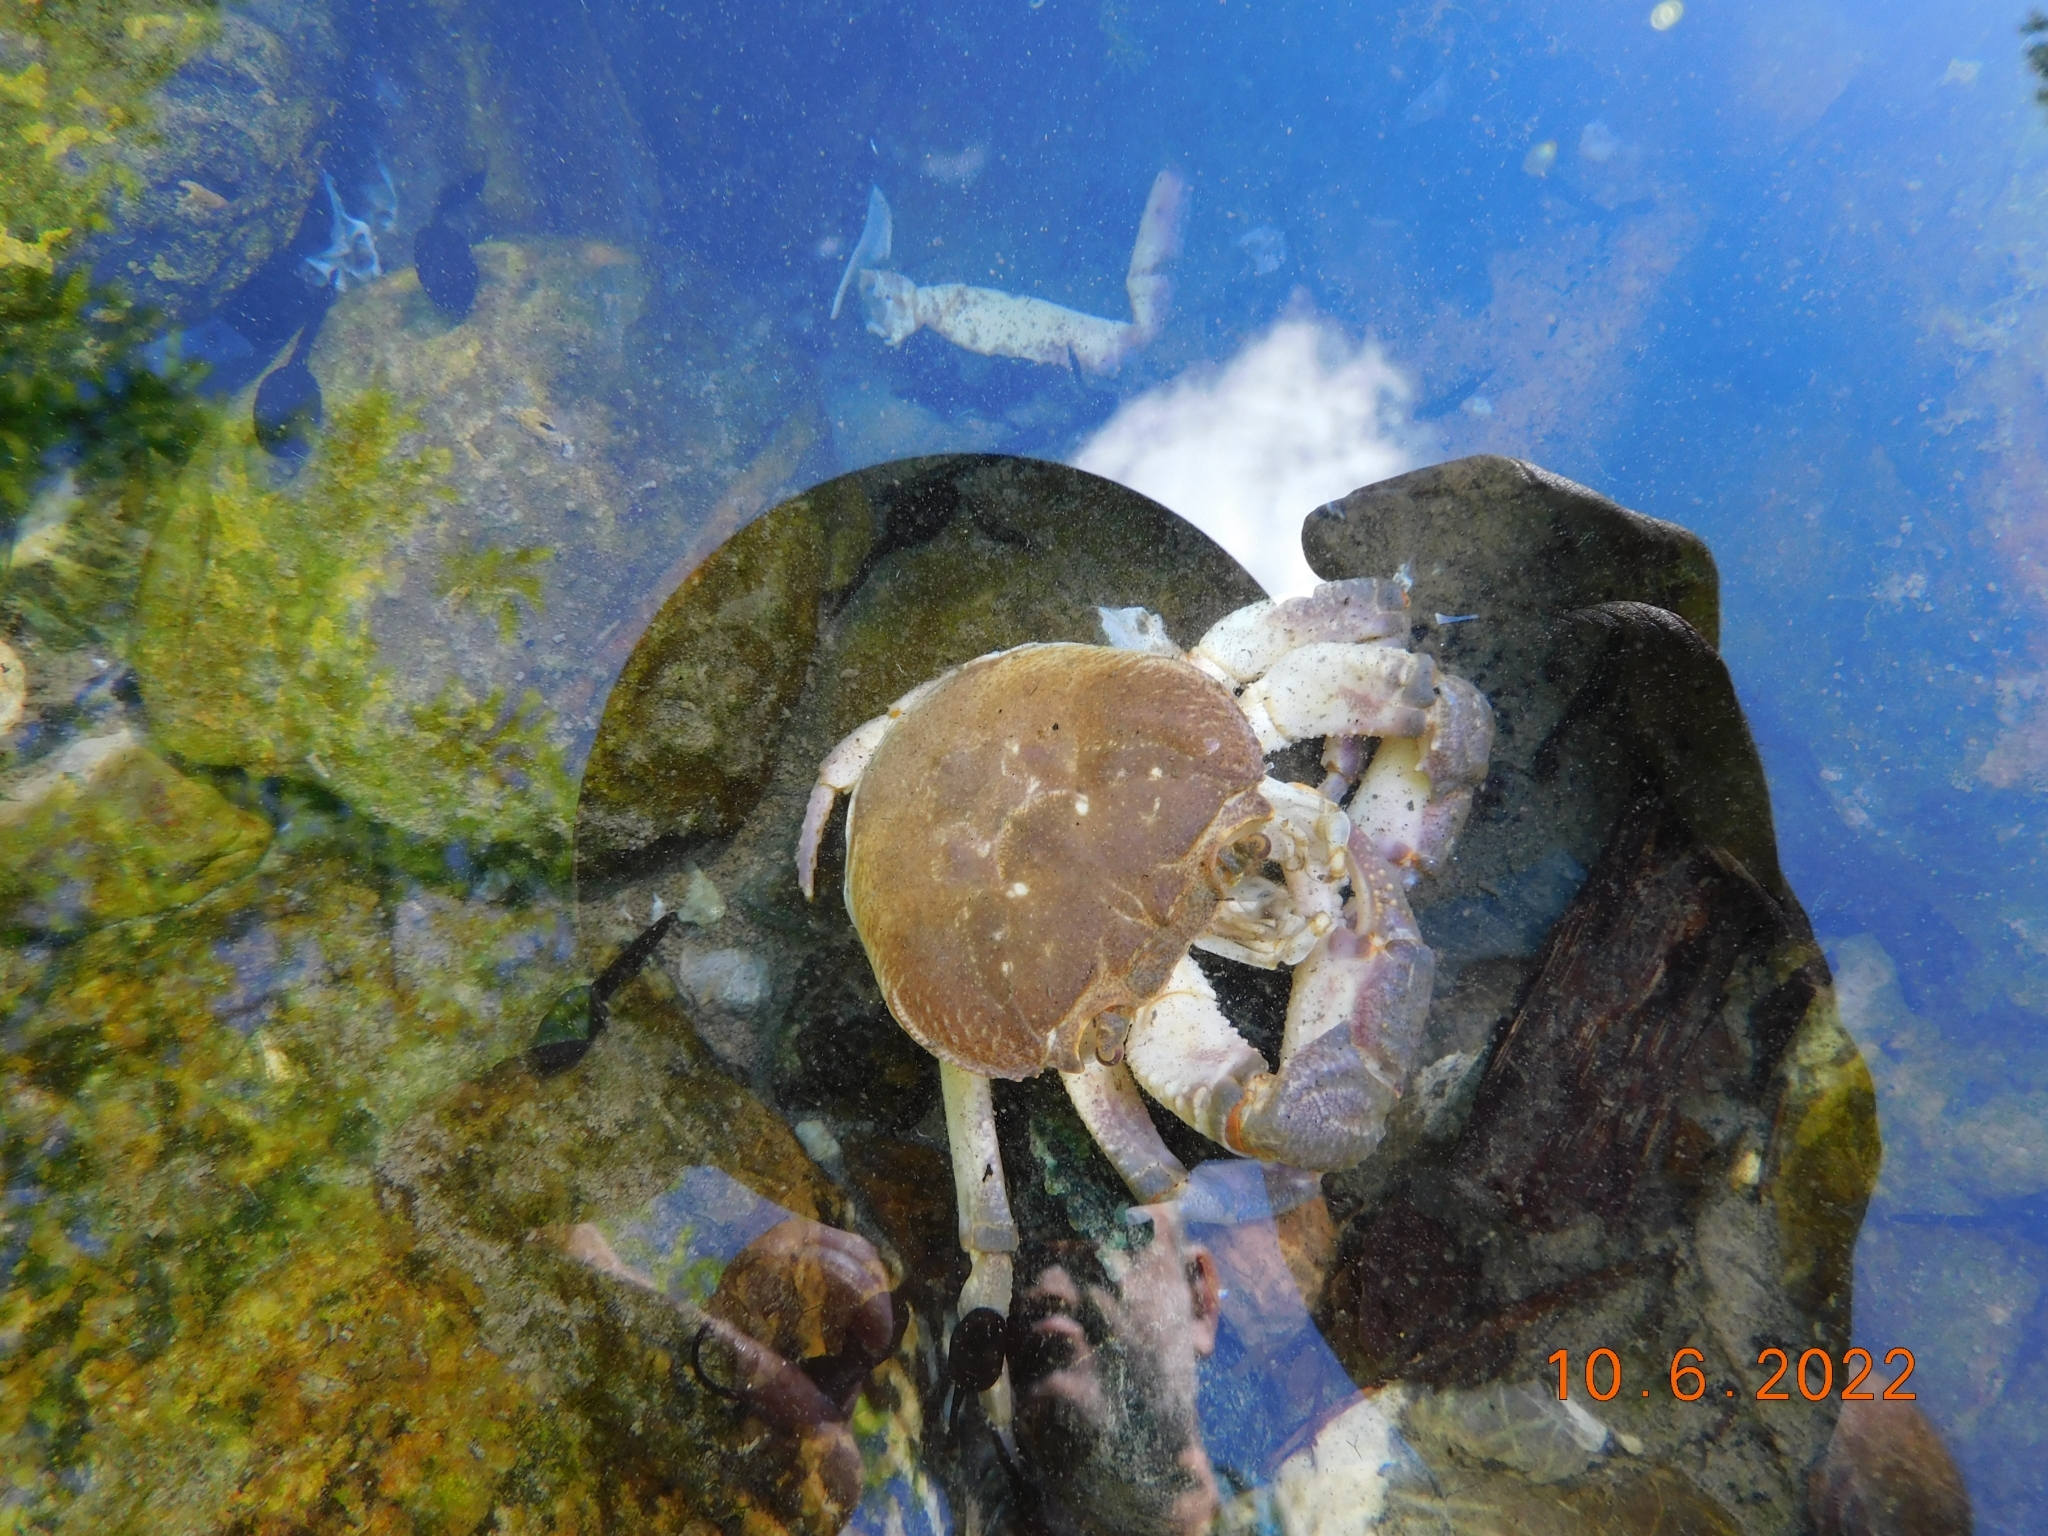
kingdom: Animalia
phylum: Arthropoda
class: Malacostraca
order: Decapoda
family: Potamidae
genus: Potamon
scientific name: Potamon fluviatile
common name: Italian freshwater crab
